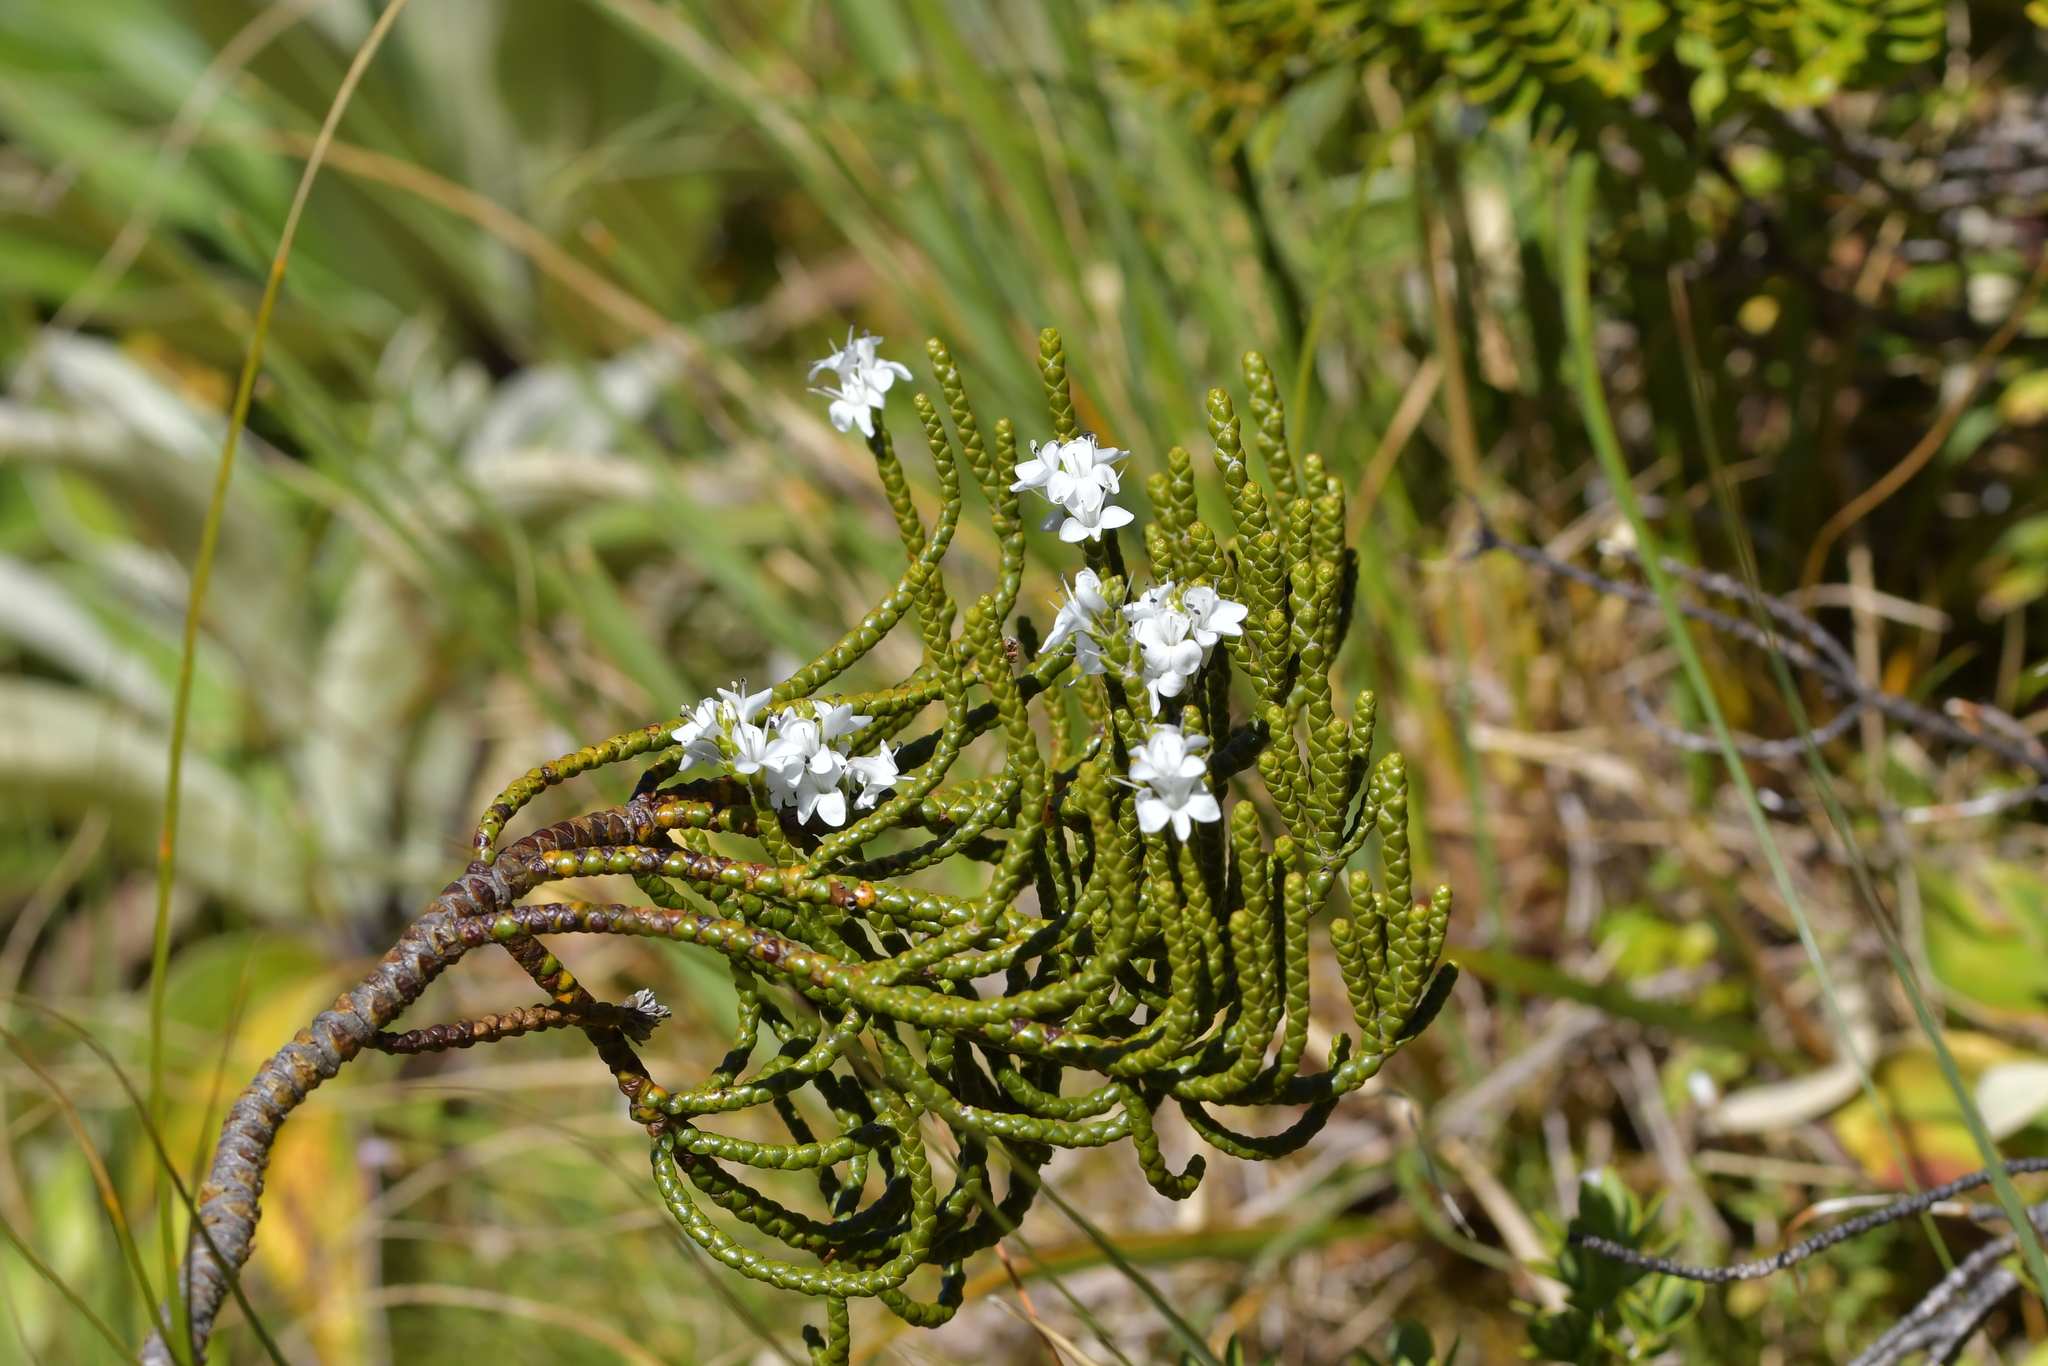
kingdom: Plantae
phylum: Tracheophyta
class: Magnoliopsida
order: Lamiales
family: Plantaginaceae
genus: Veronica
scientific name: Veronica hectorii
